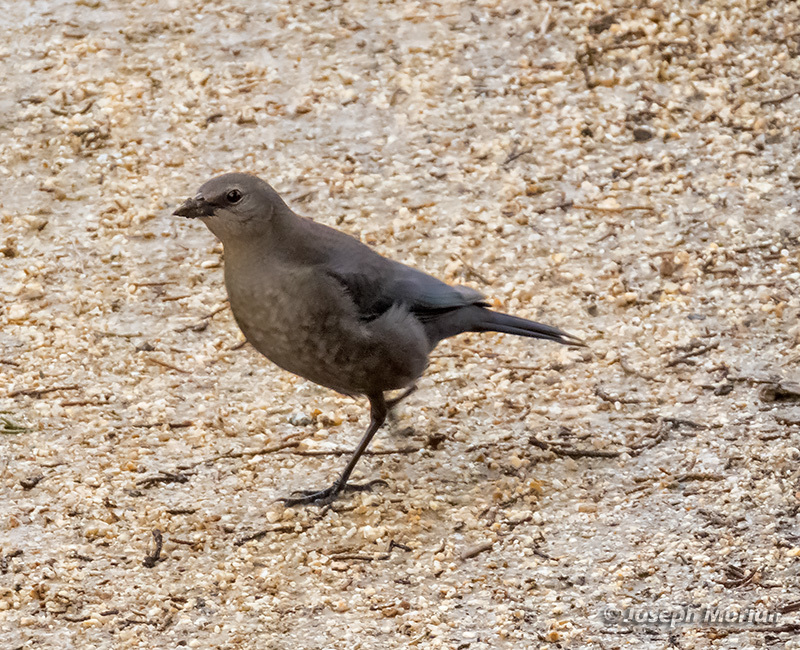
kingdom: Animalia
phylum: Chordata
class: Aves
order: Passeriformes
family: Icteridae
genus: Euphagus
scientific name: Euphagus cyanocephalus
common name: Brewer's blackbird
